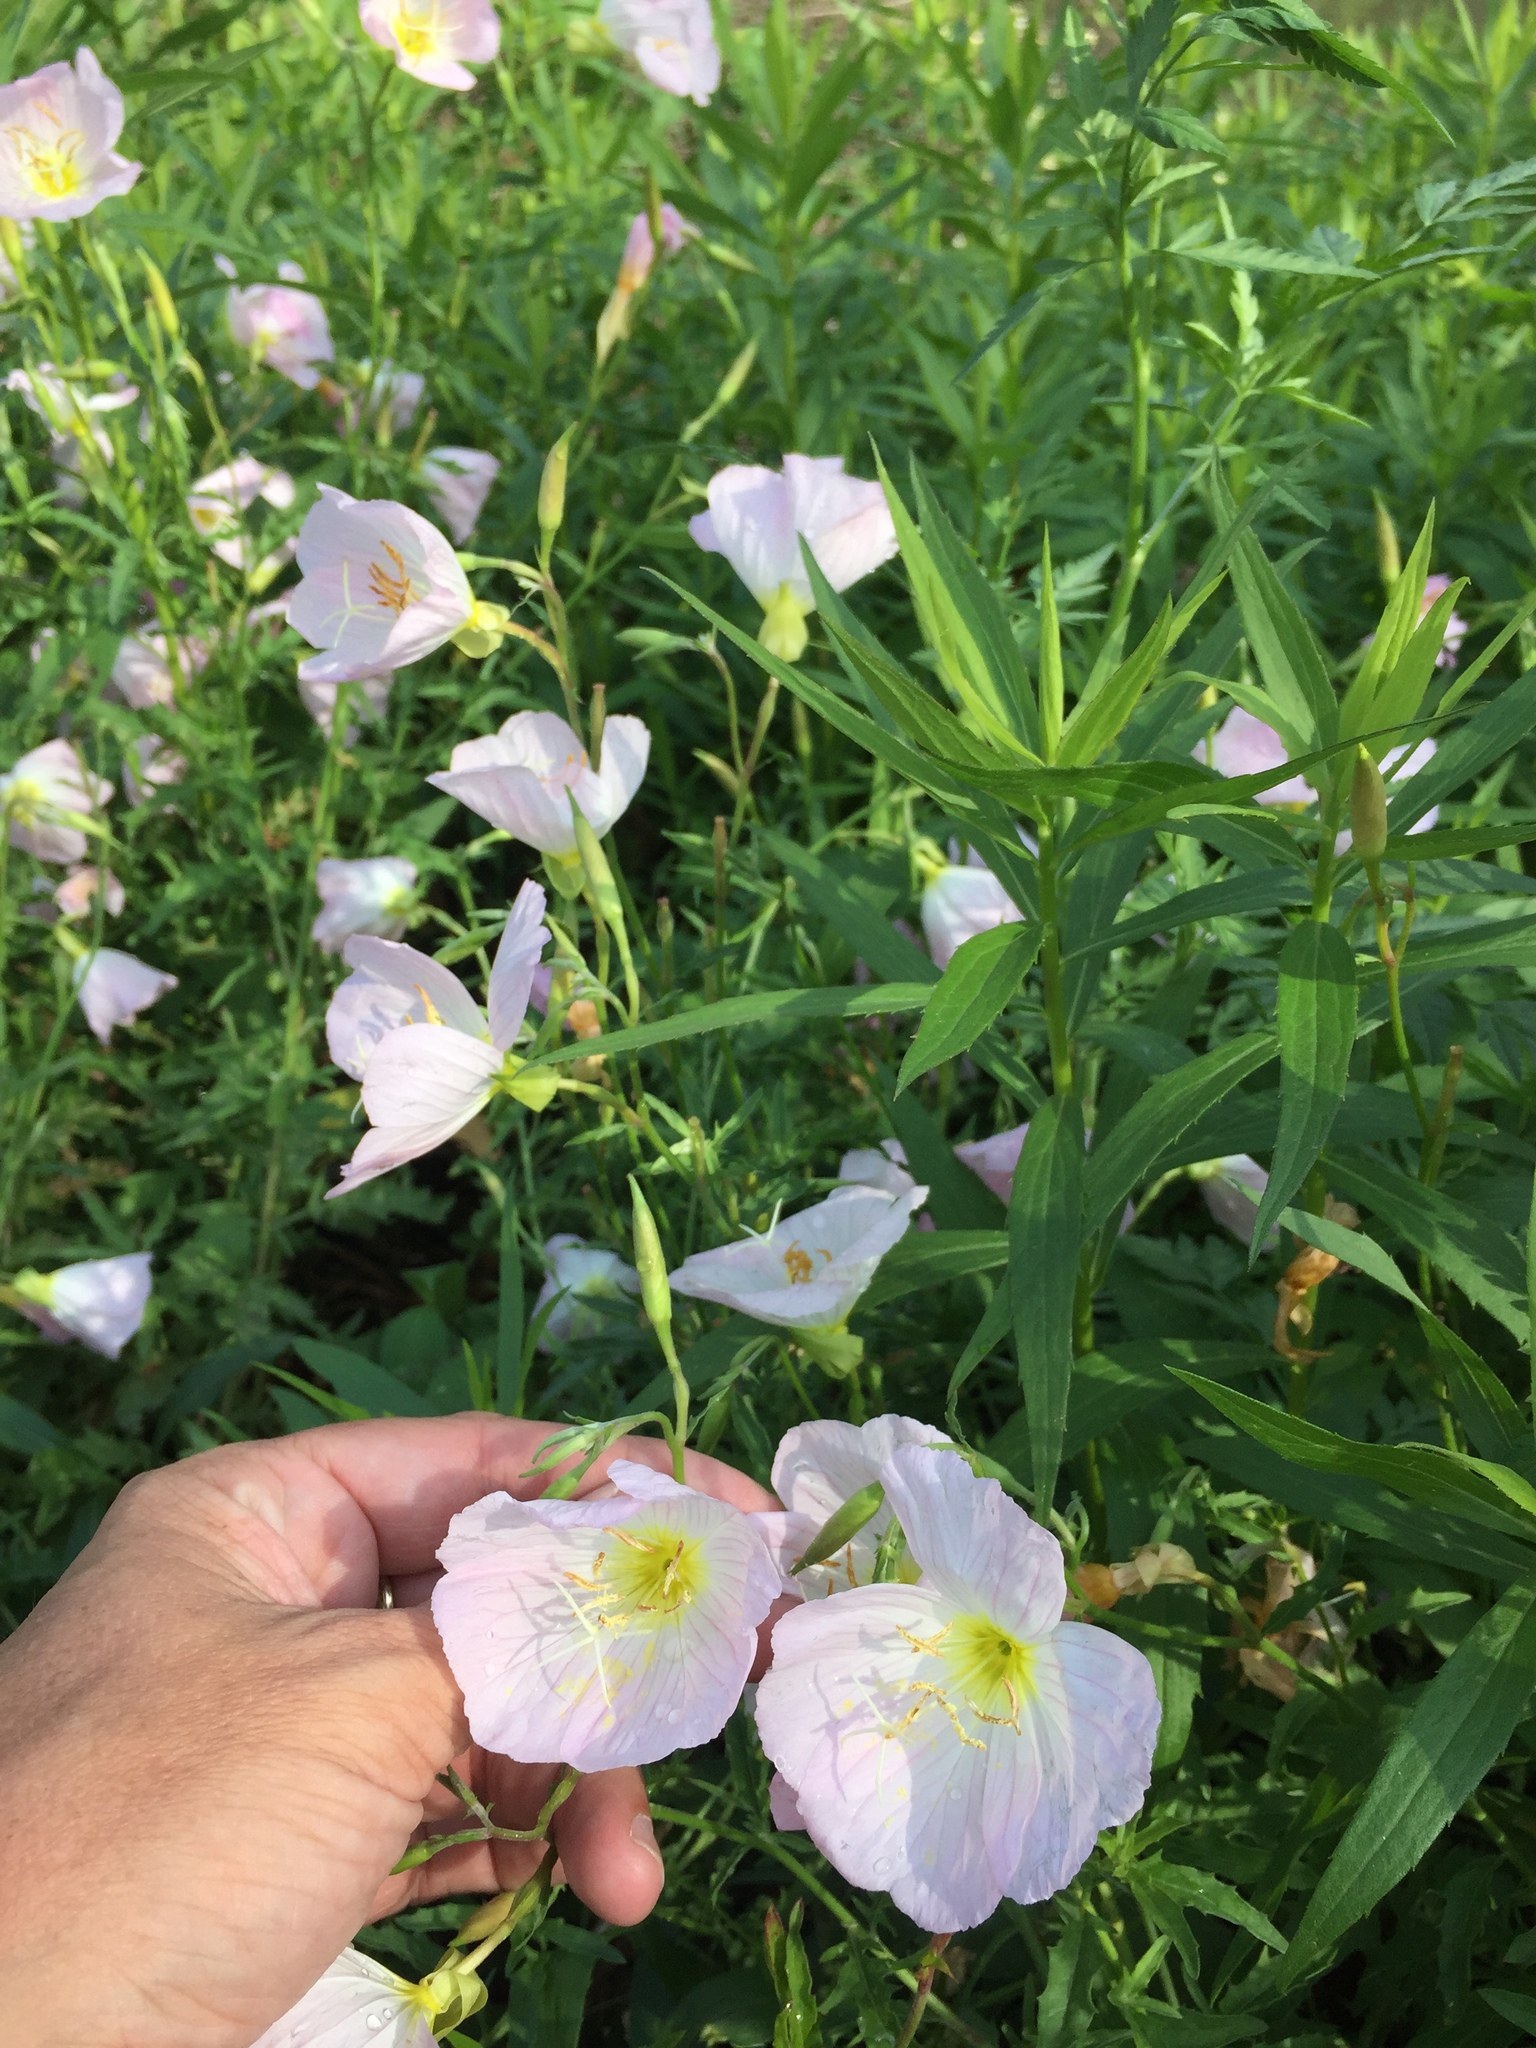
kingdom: Plantae
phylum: Tracheophyta
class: Magnoliopsida
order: Myrtales
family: Onagraceae
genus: Oenothera
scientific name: Oenothera speciosa
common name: White evening-primrose
